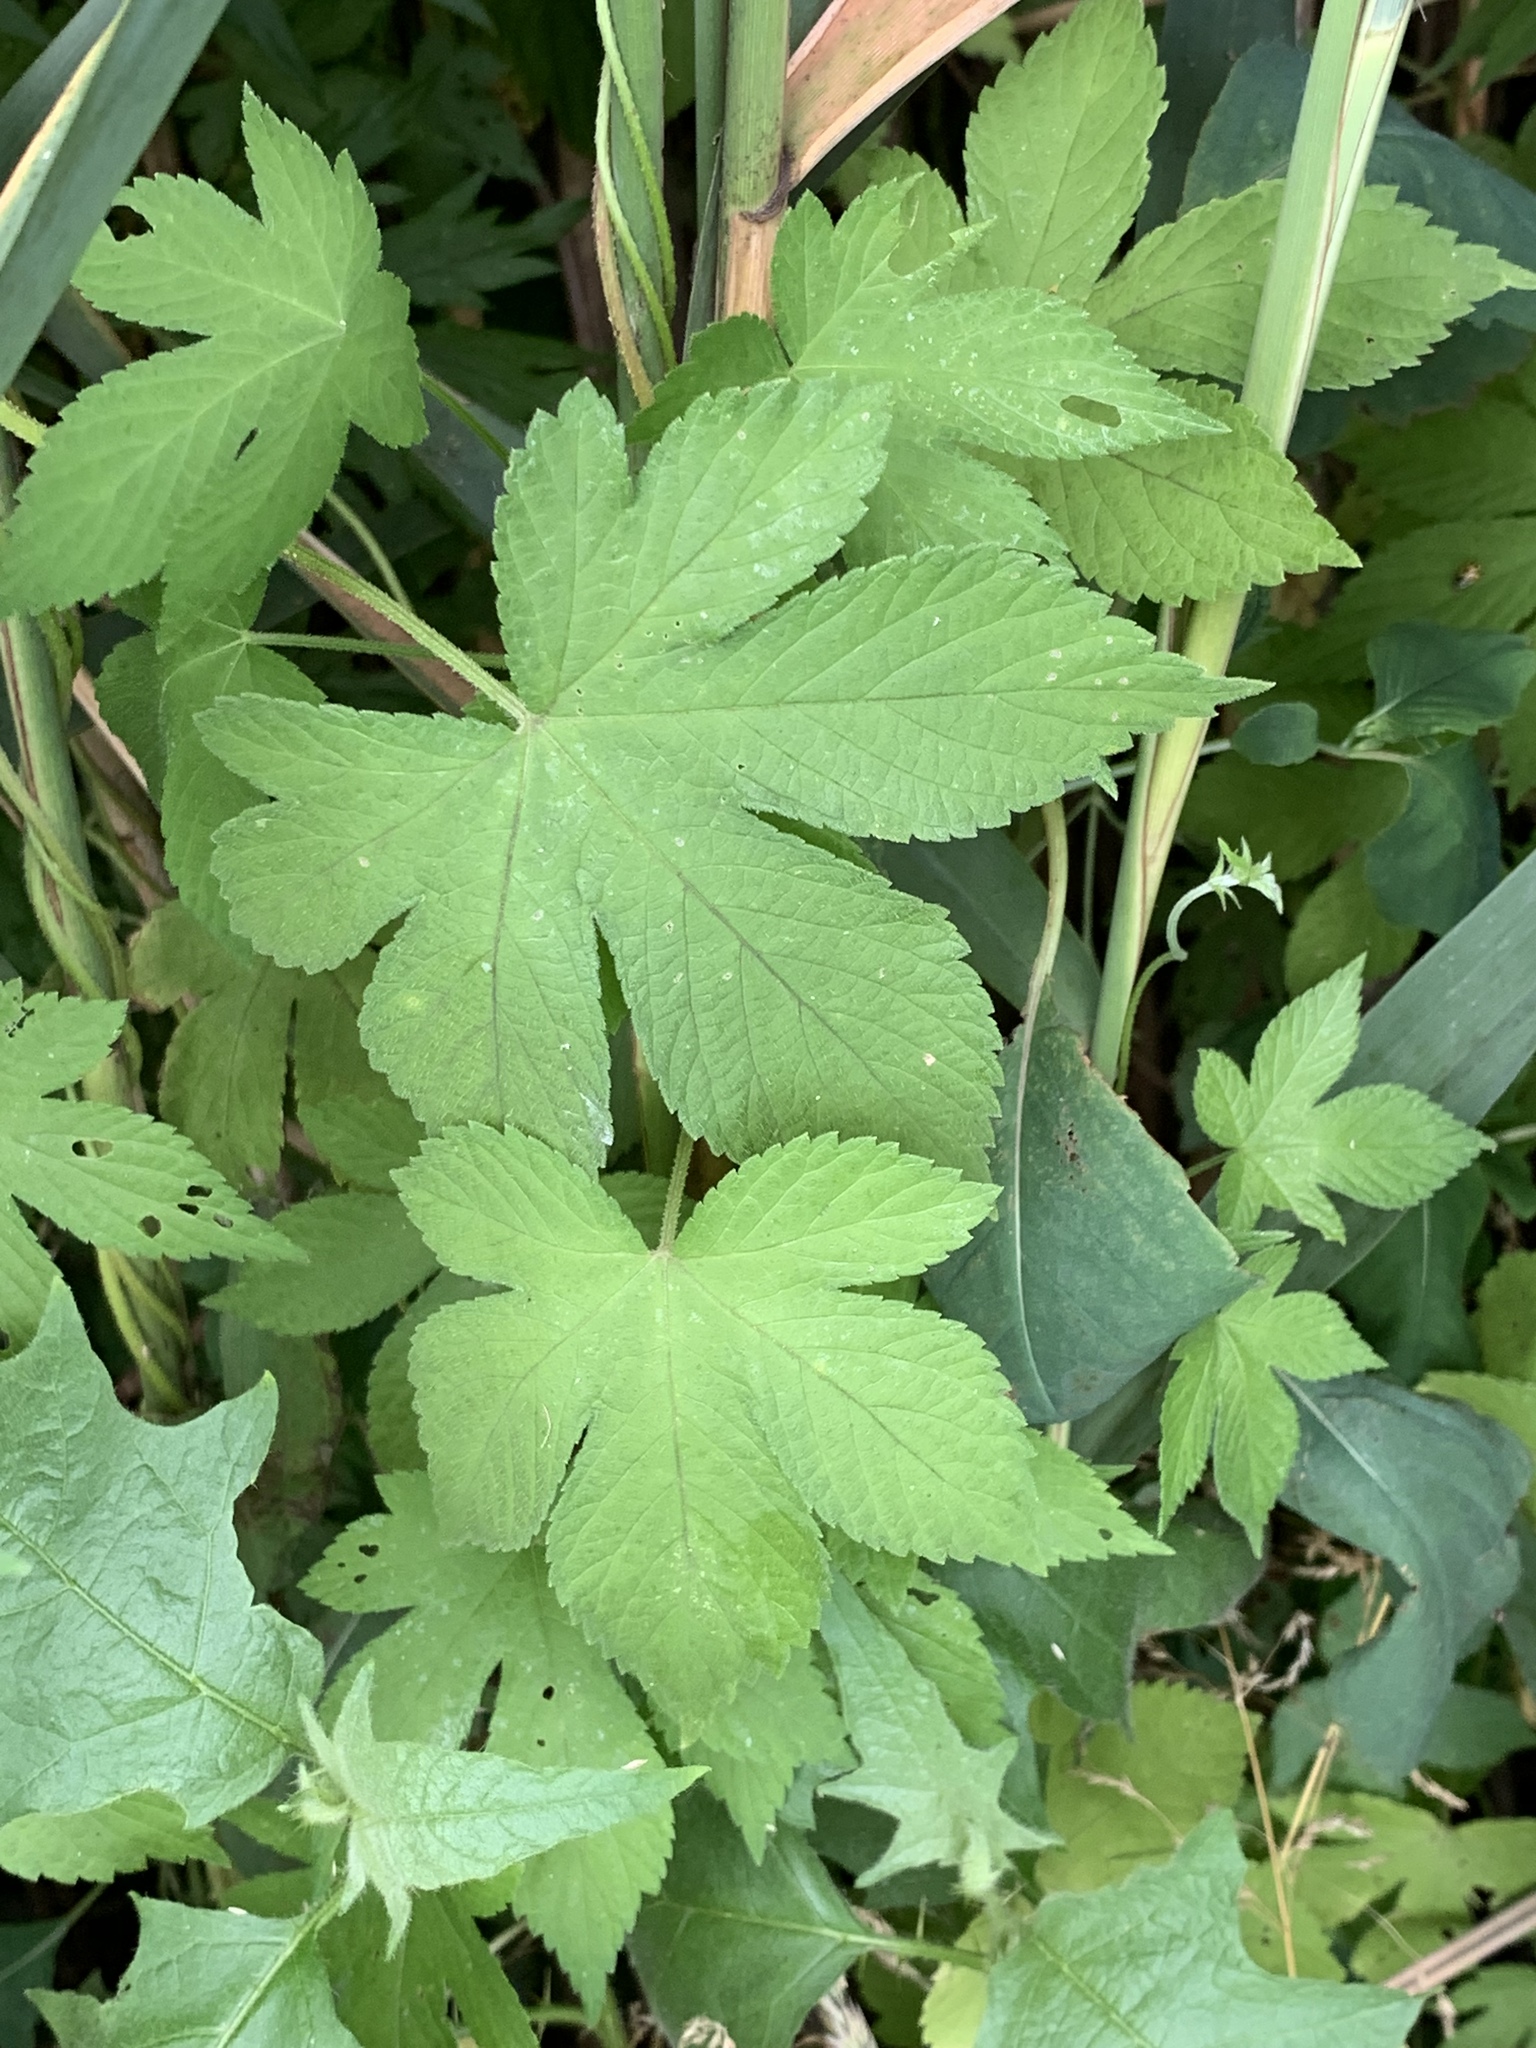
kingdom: Plantae
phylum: Tracheophyta
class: Magnoliopsida
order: Rosales
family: Cannabaceae
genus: Humulus
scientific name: Humulus scandens
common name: Japanese hop
